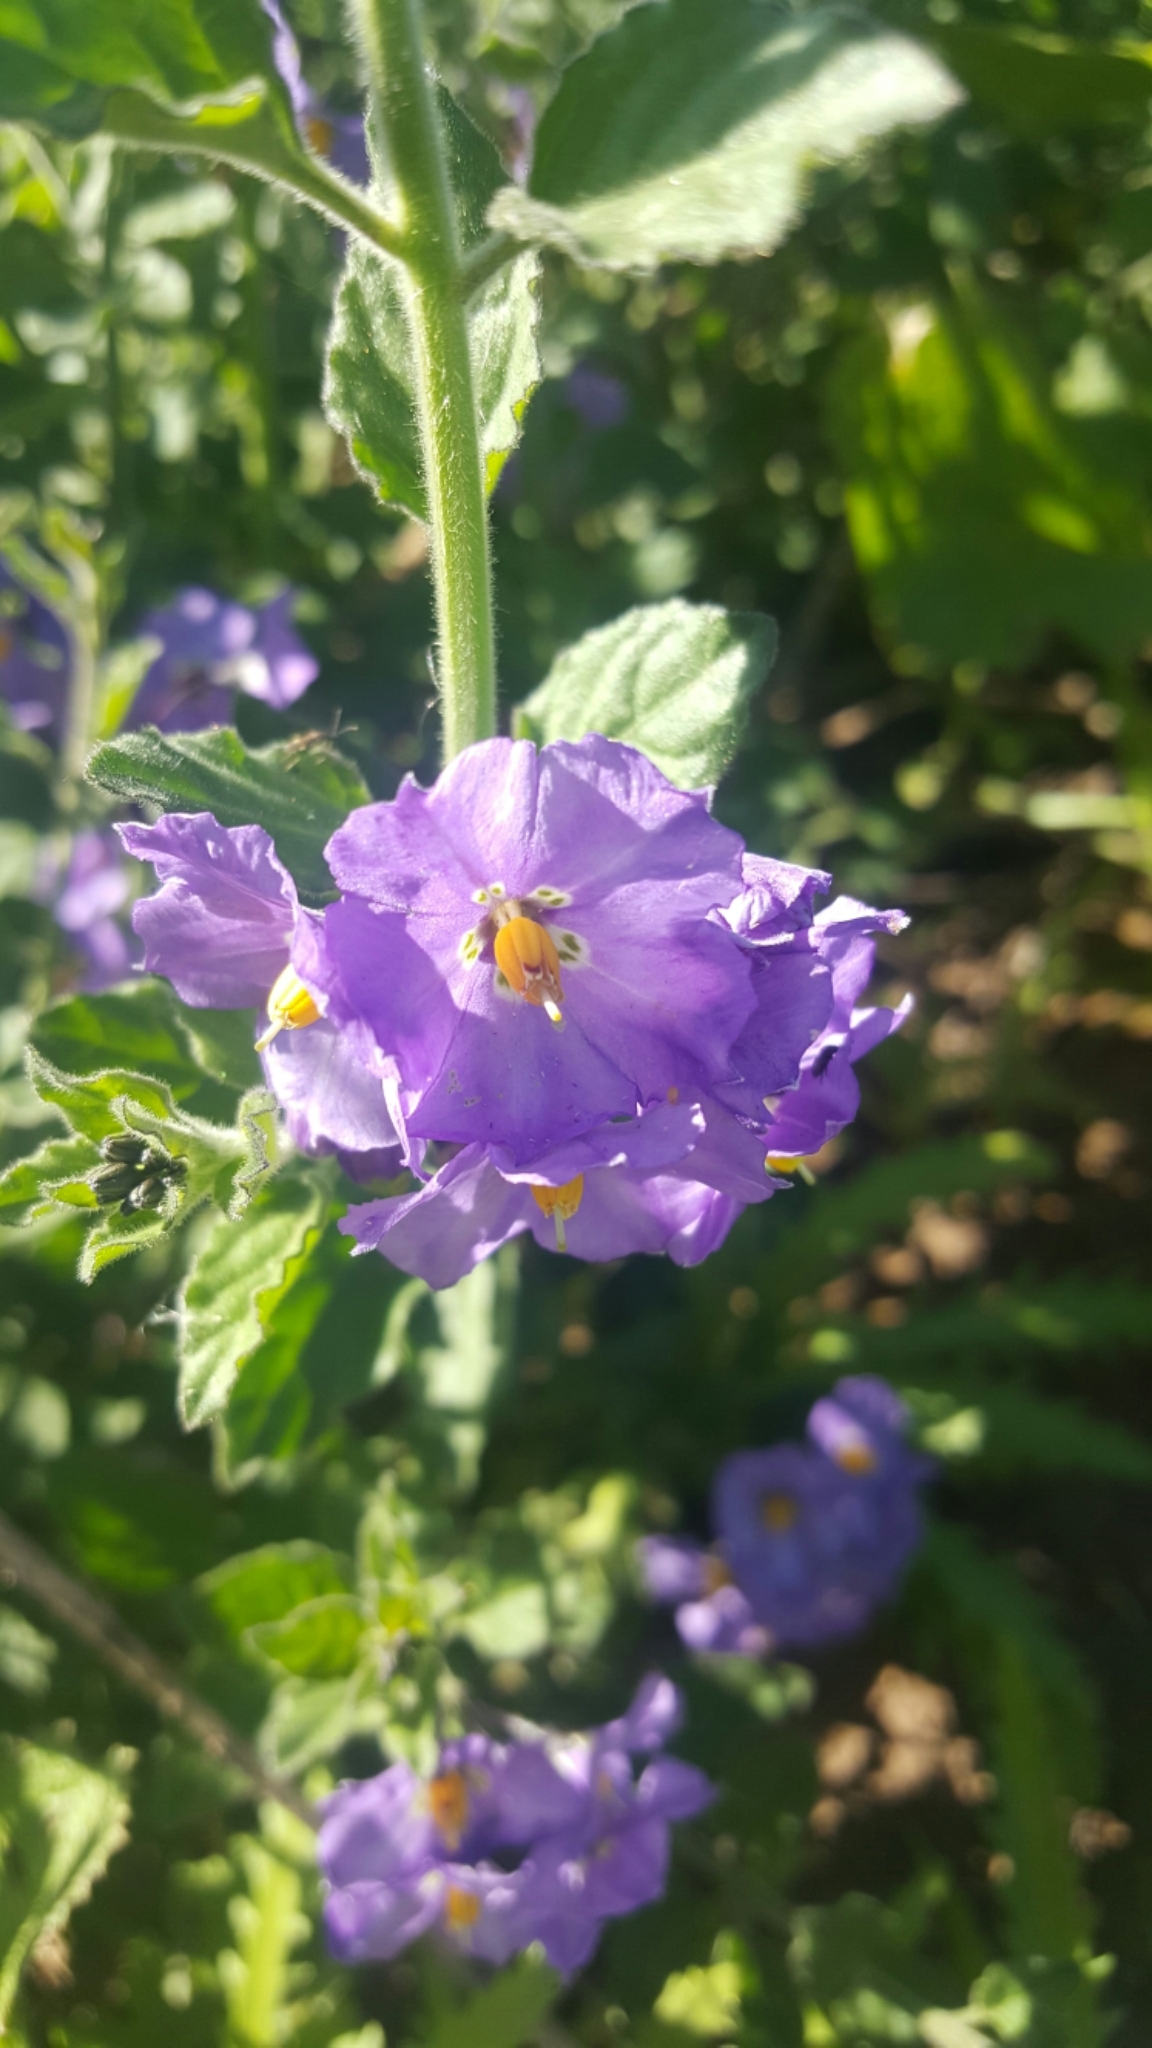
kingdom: Plantae
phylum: Tracheophyta
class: Magnoliopsida
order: Solanales
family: Solanaceae
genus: Solanum
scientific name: Solanum umbelliferum
